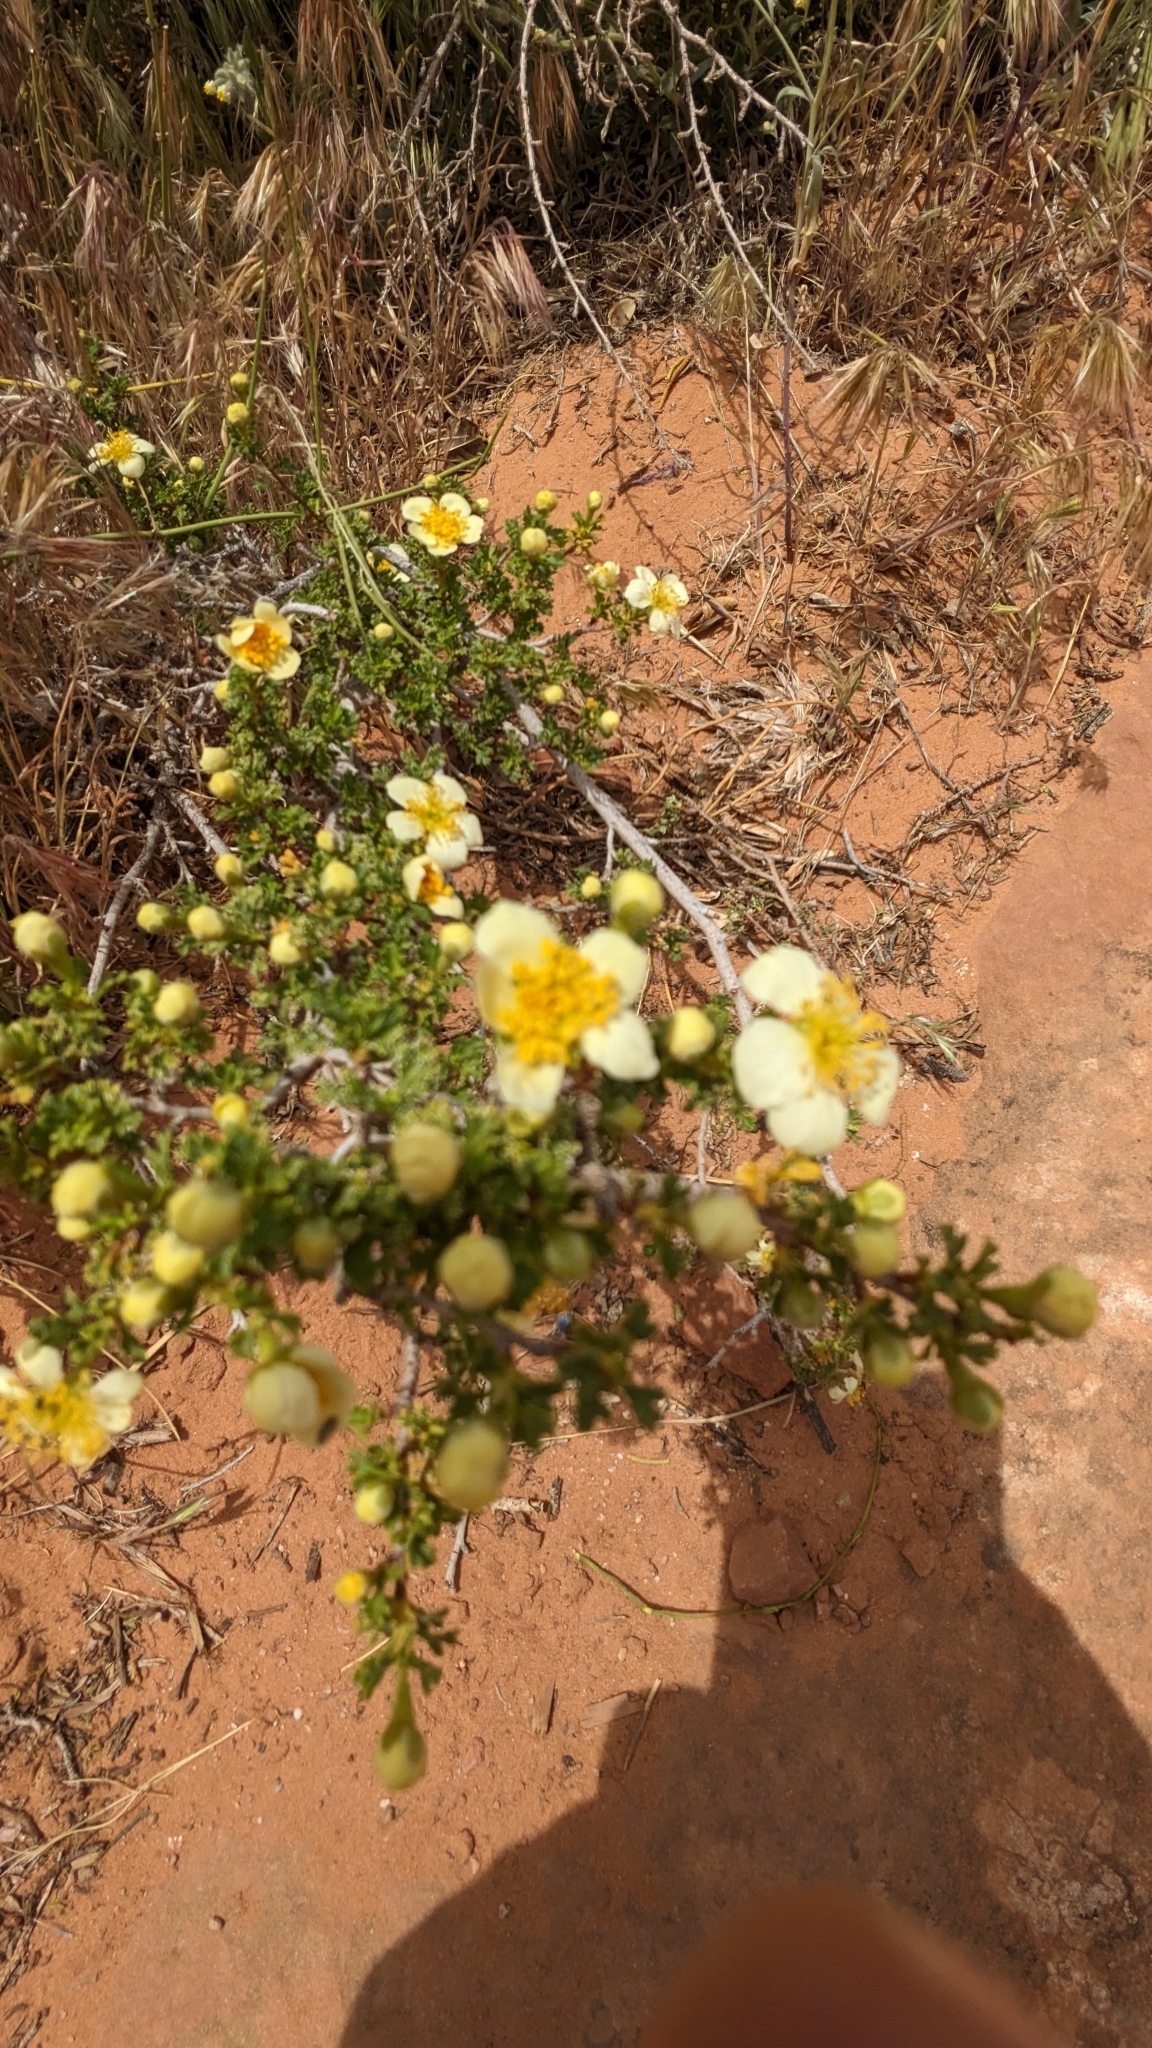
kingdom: Plantae
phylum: Tracheophyta
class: Magnoliopsida
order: Rosales
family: Rosaceae
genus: Purshia
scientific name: Purshia stansburiana
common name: Stansbury's cliffrose
